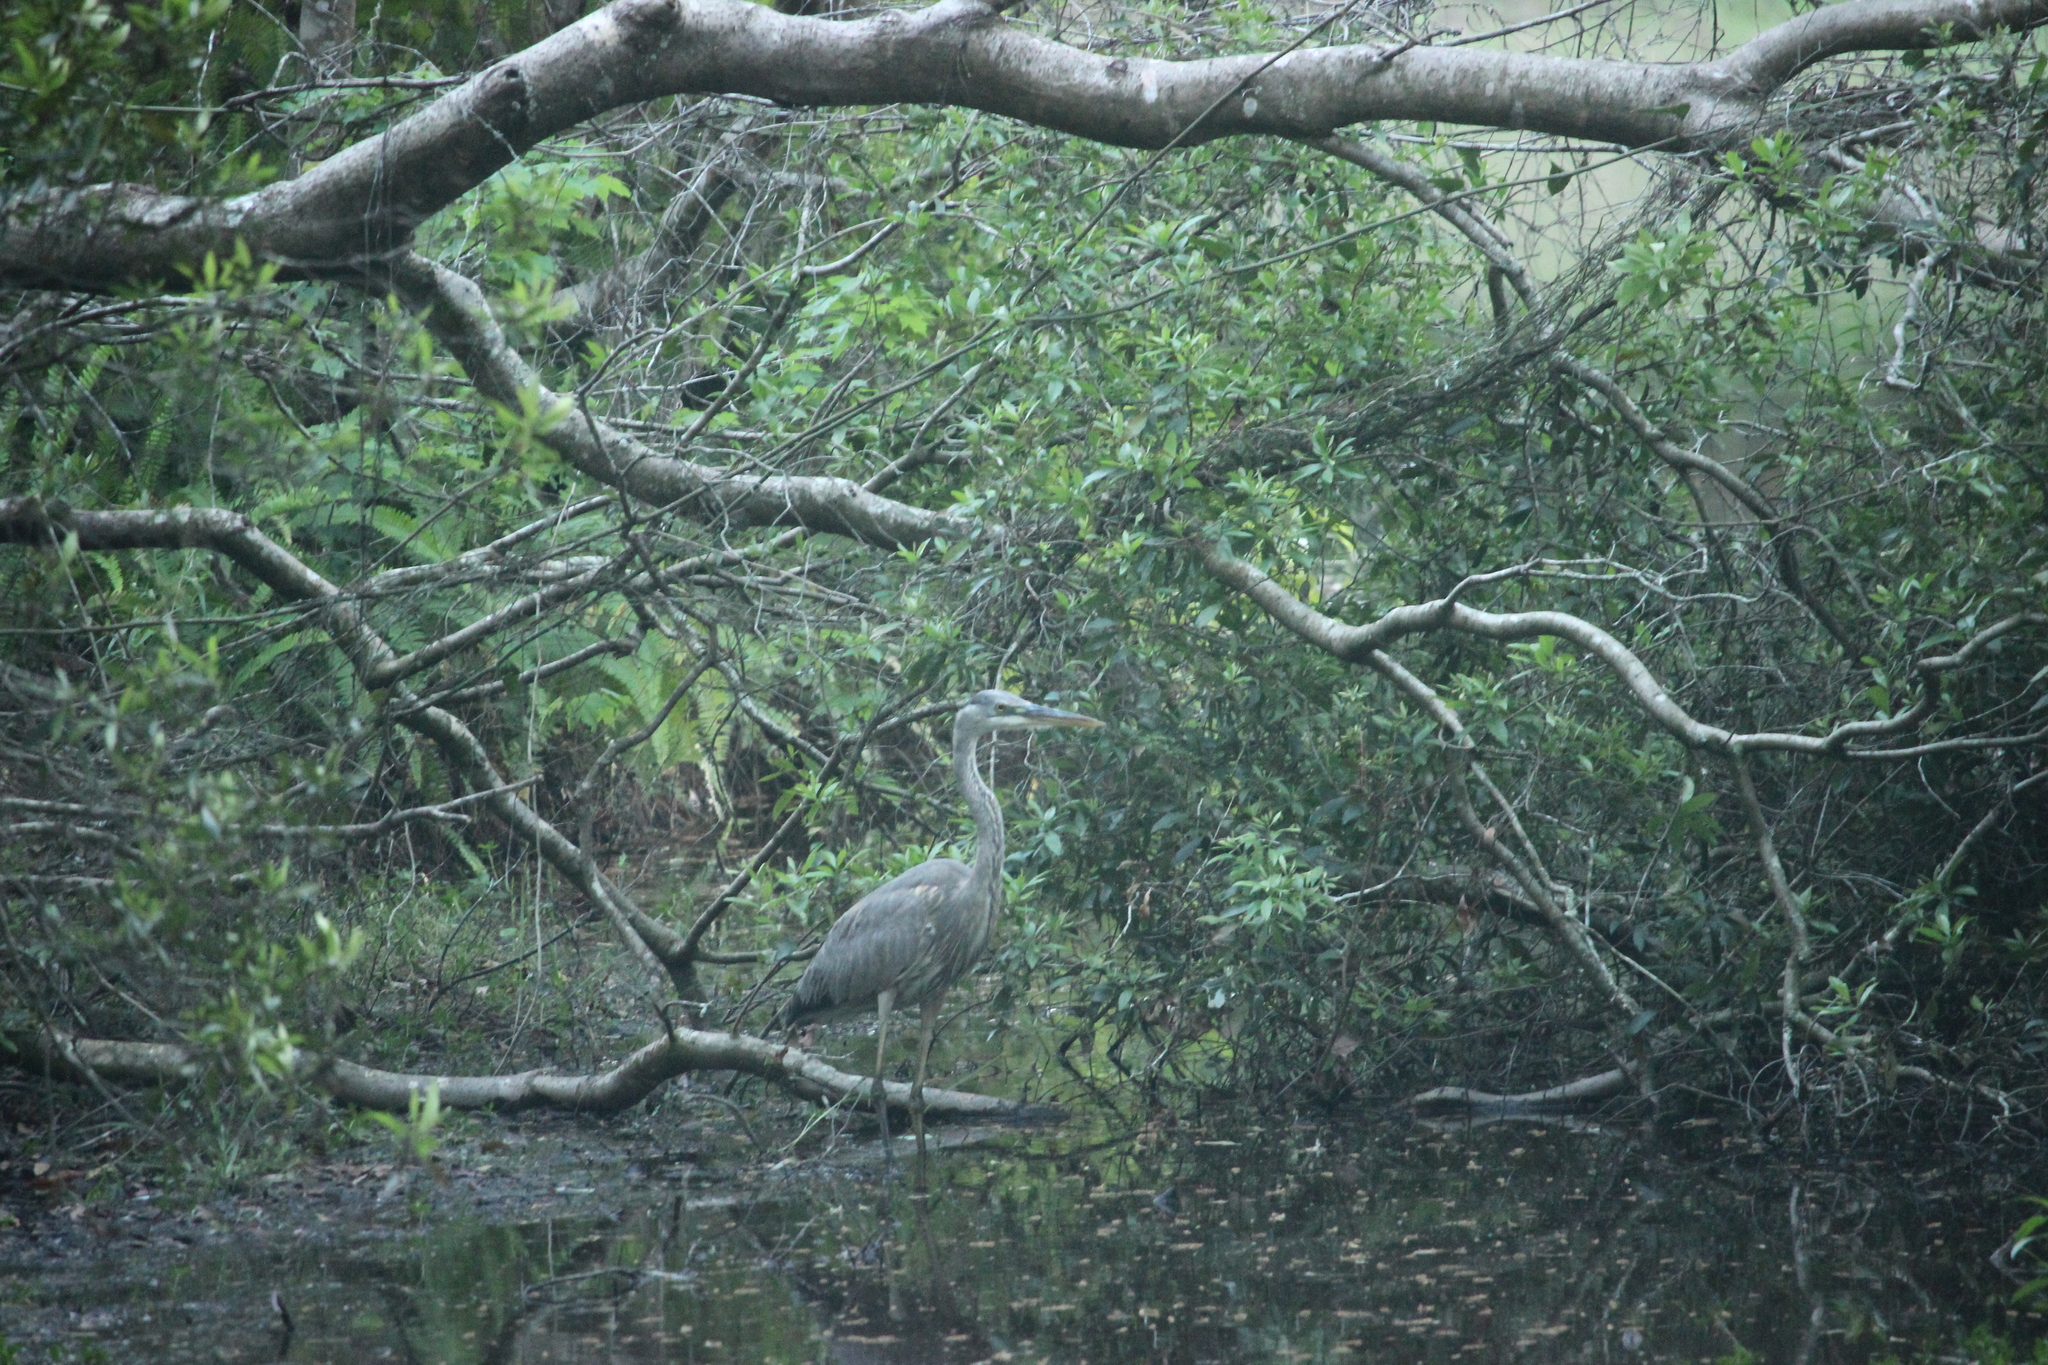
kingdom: Animalia
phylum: Chordata
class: Aves
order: Pelecaniformes
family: Ardeidae
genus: Ardea
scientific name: Ardea herodias
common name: Great blue heron
